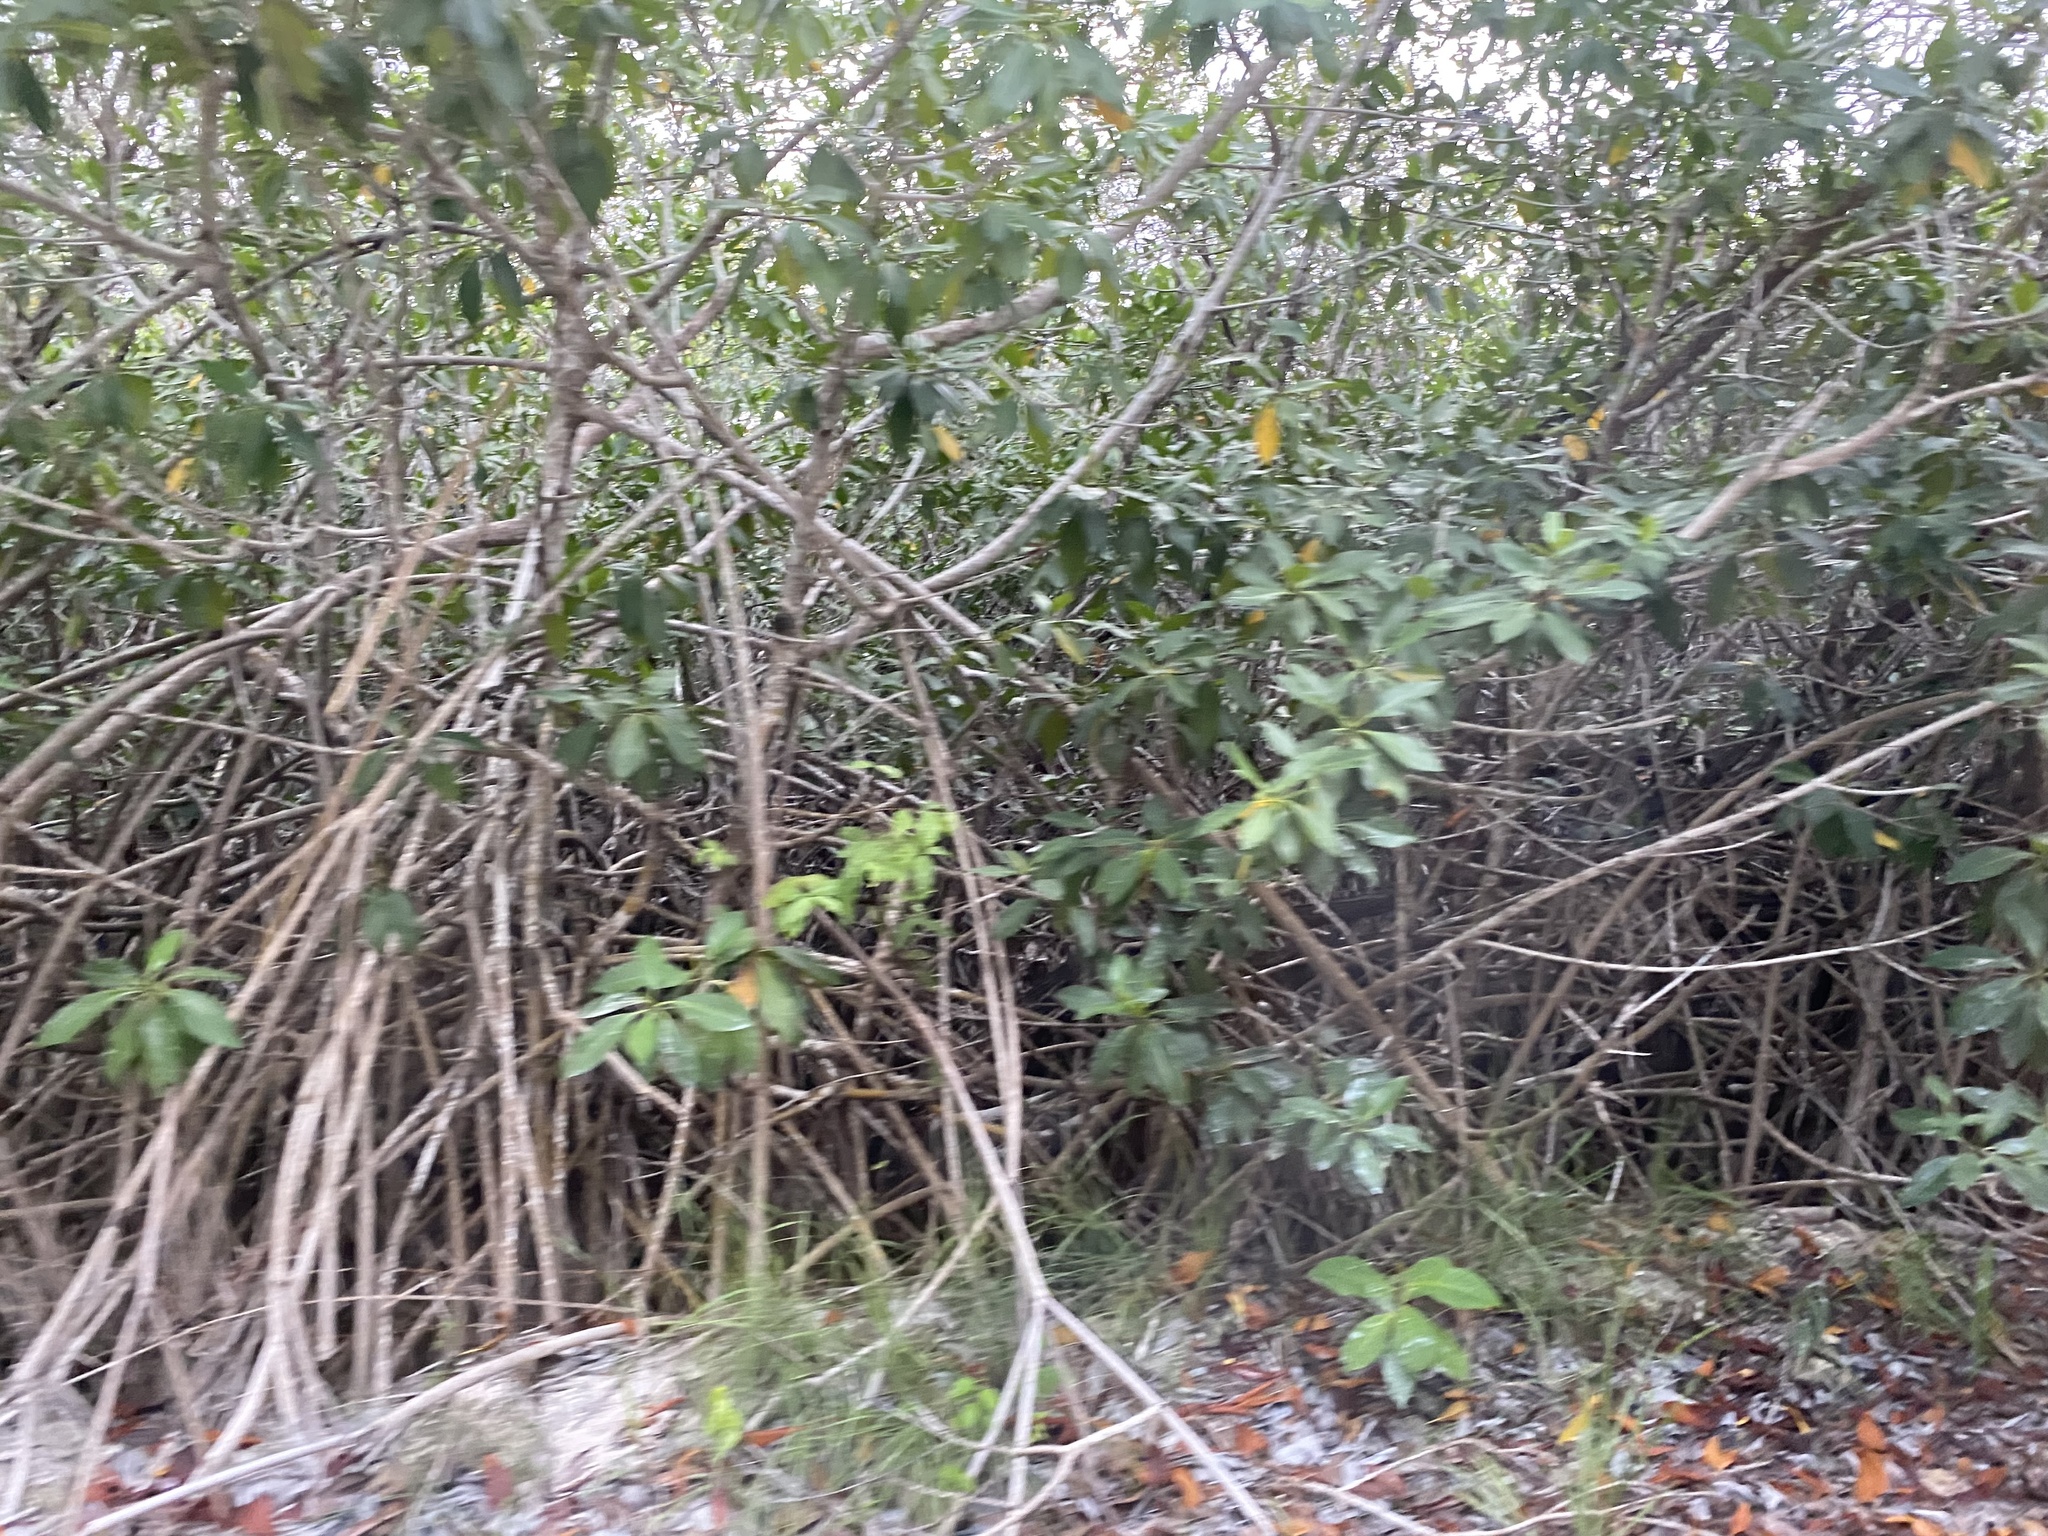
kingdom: Plantae
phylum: Tracheophyta
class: Magnoliopsida
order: Malpighiales
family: Rhizophoraceae
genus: Rhizophora
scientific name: Rhizophora mangle
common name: Red mangrove
